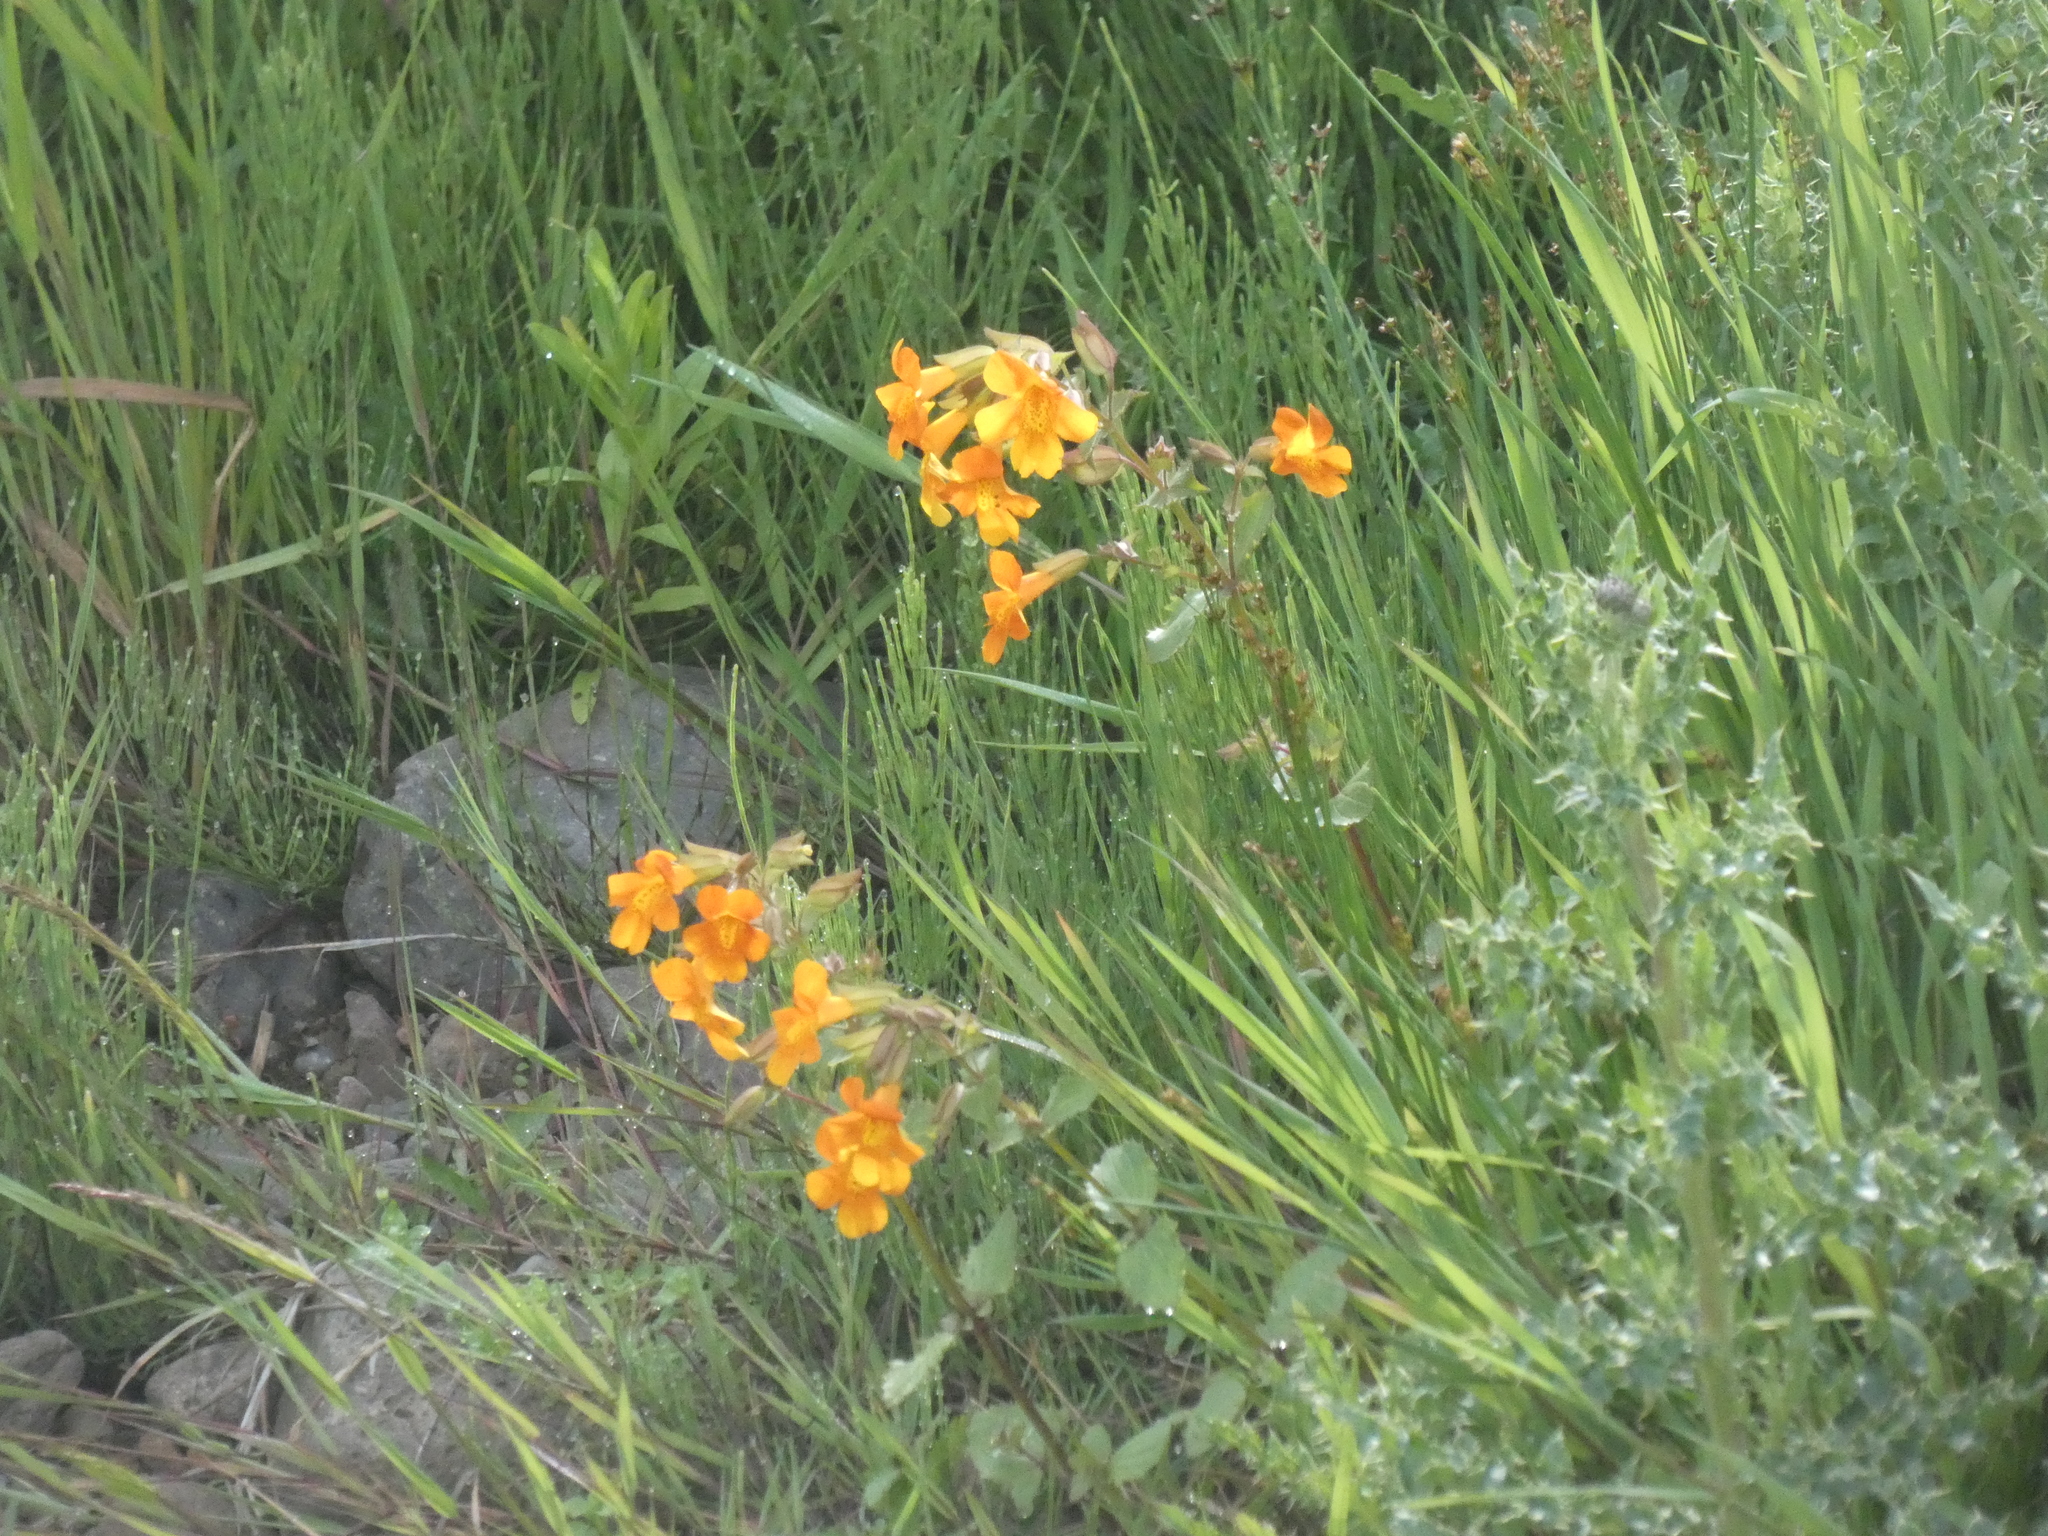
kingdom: Plantae
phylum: Tracheophyta
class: Magnoliopsida
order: Lamiales
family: Phrymaceae
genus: Erythranthe
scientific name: Erythranthe burnetii
